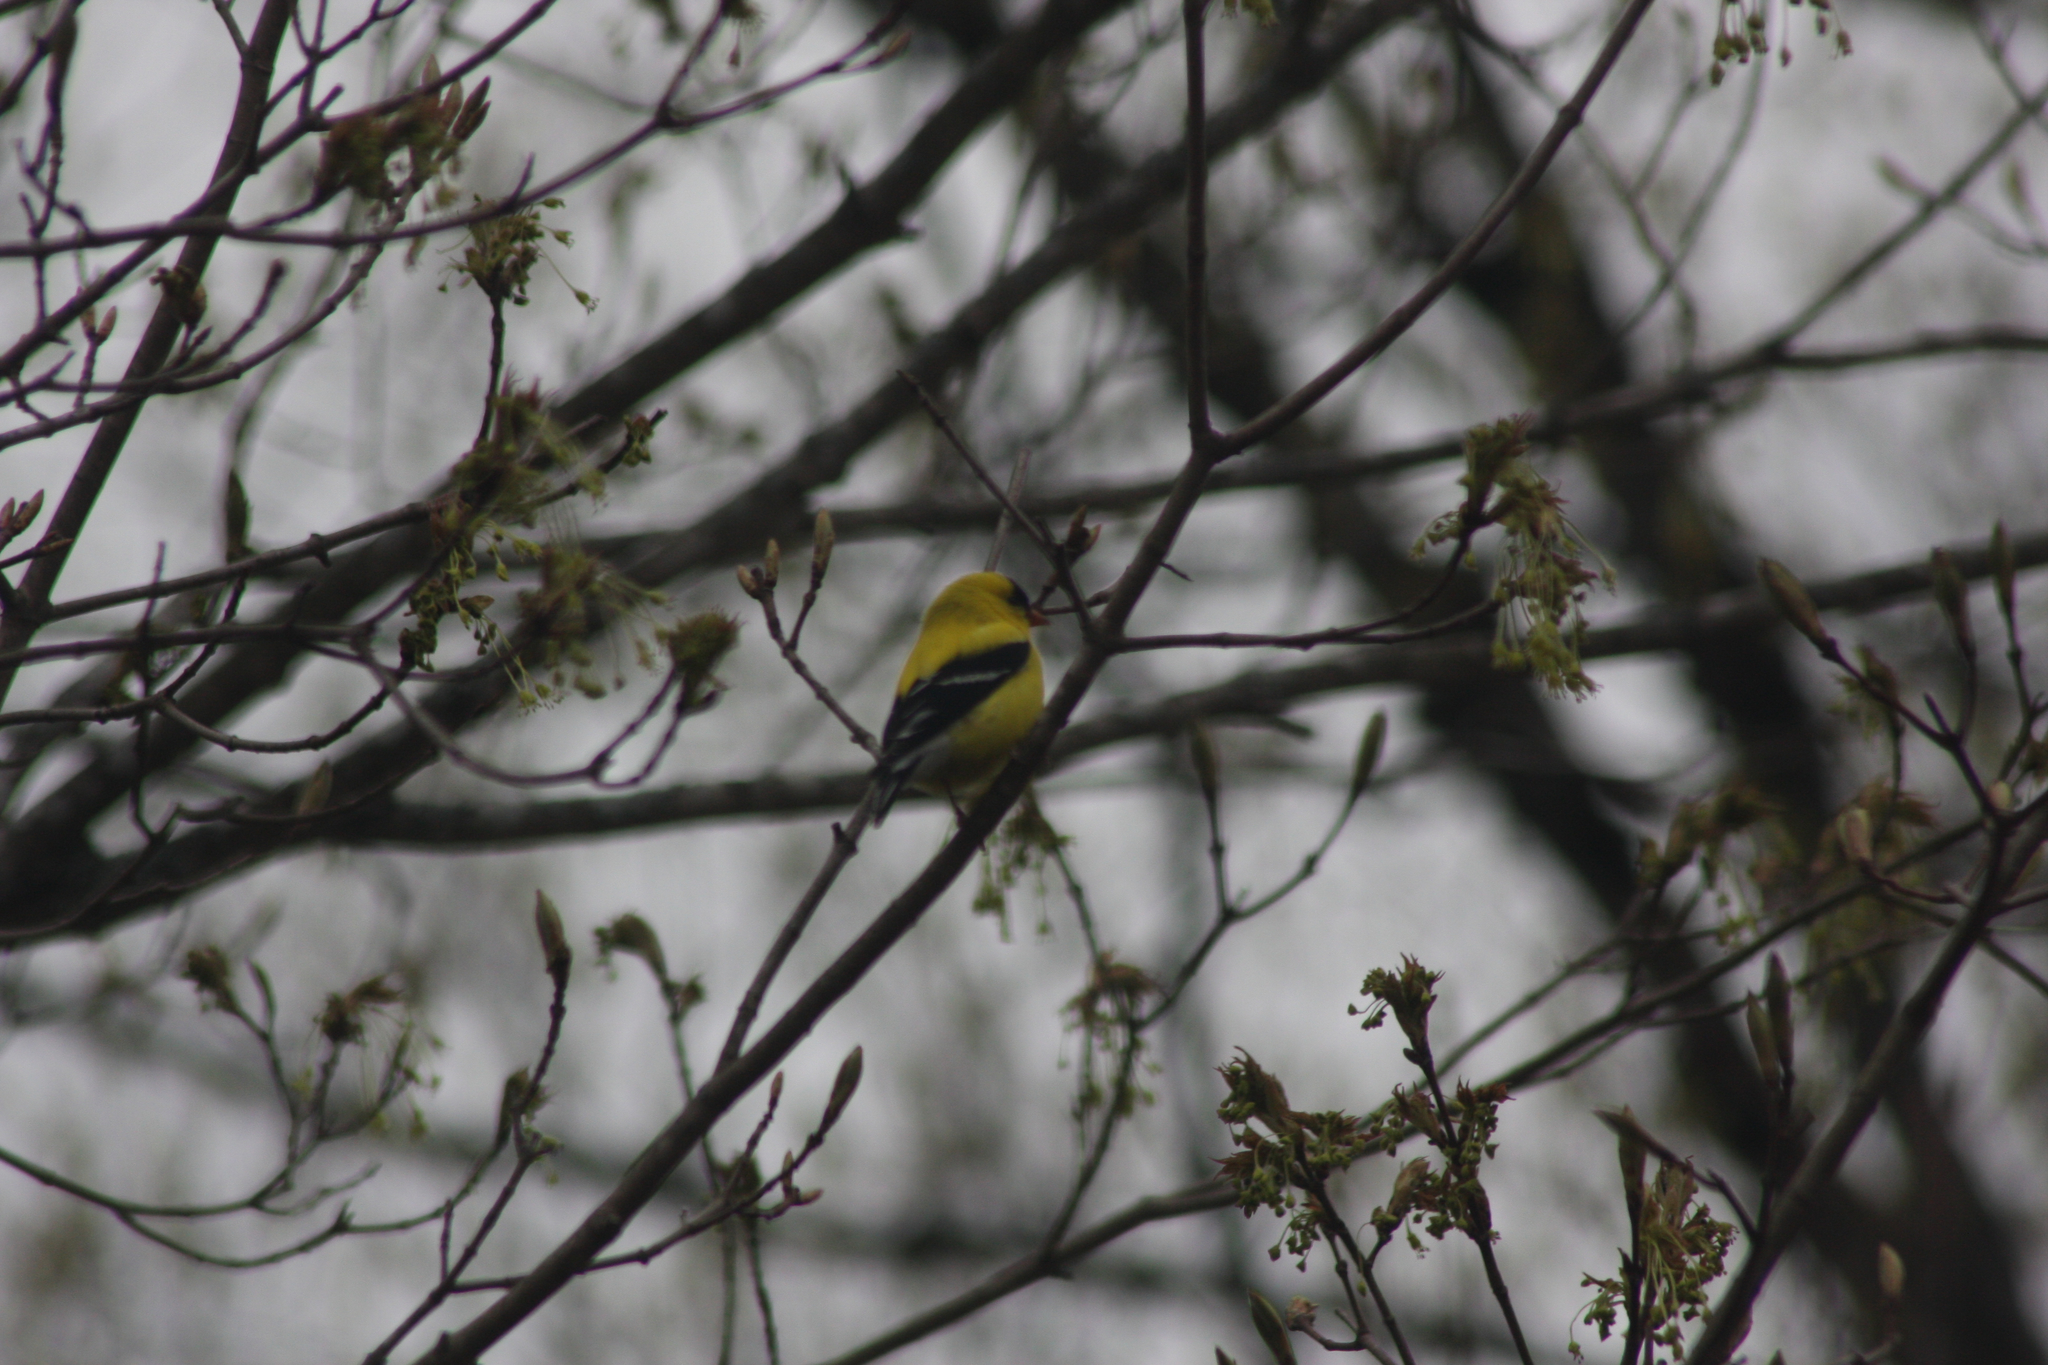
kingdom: Animalia
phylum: Chordata
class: Aves
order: Passeriformes
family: Fringillidae
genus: Spinus
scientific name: Spinus tristis
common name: American goldfinch
